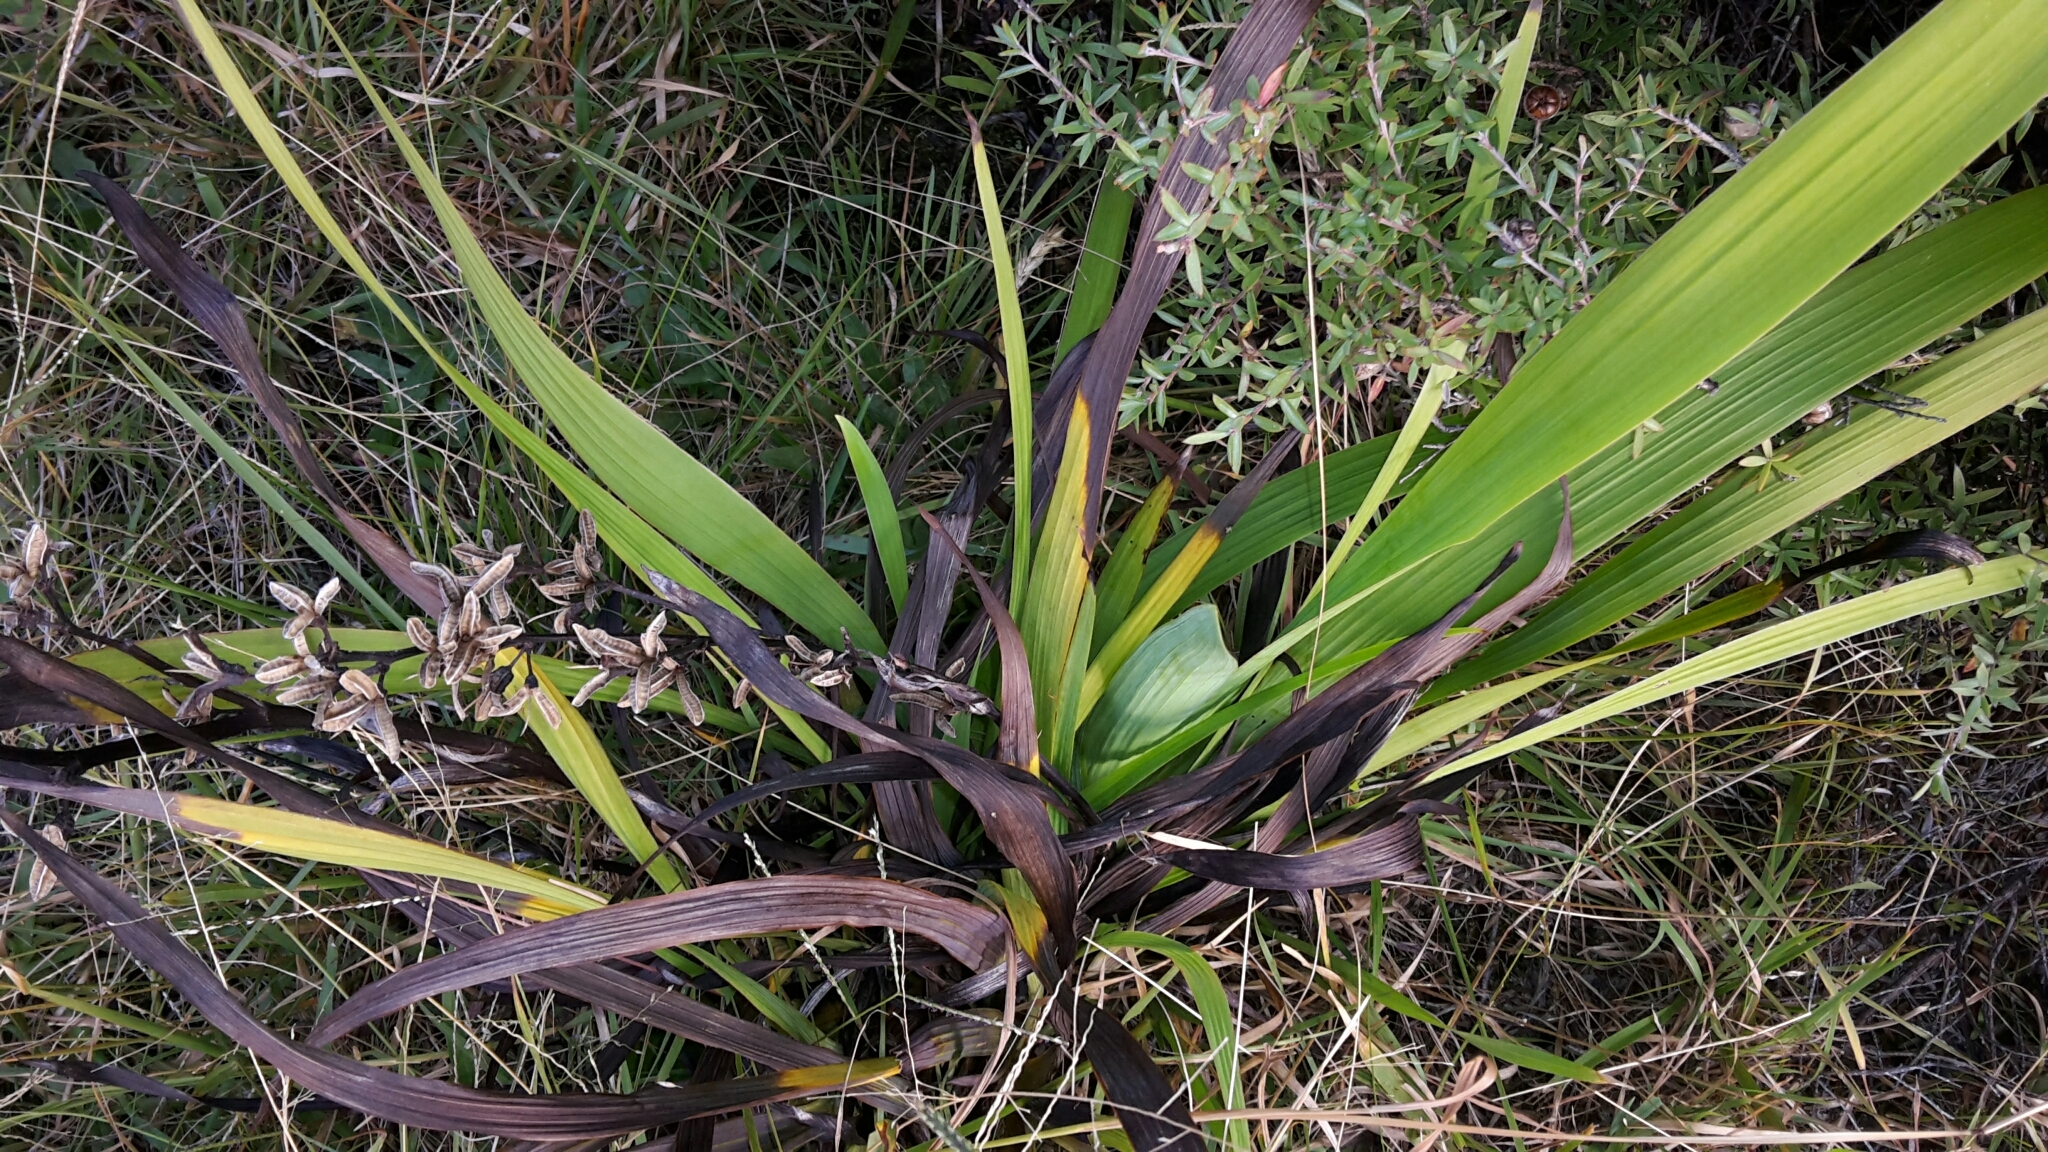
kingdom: Plantae
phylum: Tracheophyta
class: Liliopsida
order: Asparagales
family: Iridaceae
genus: Aristea
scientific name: Aristea ecklonii
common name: Blue corn-lily
